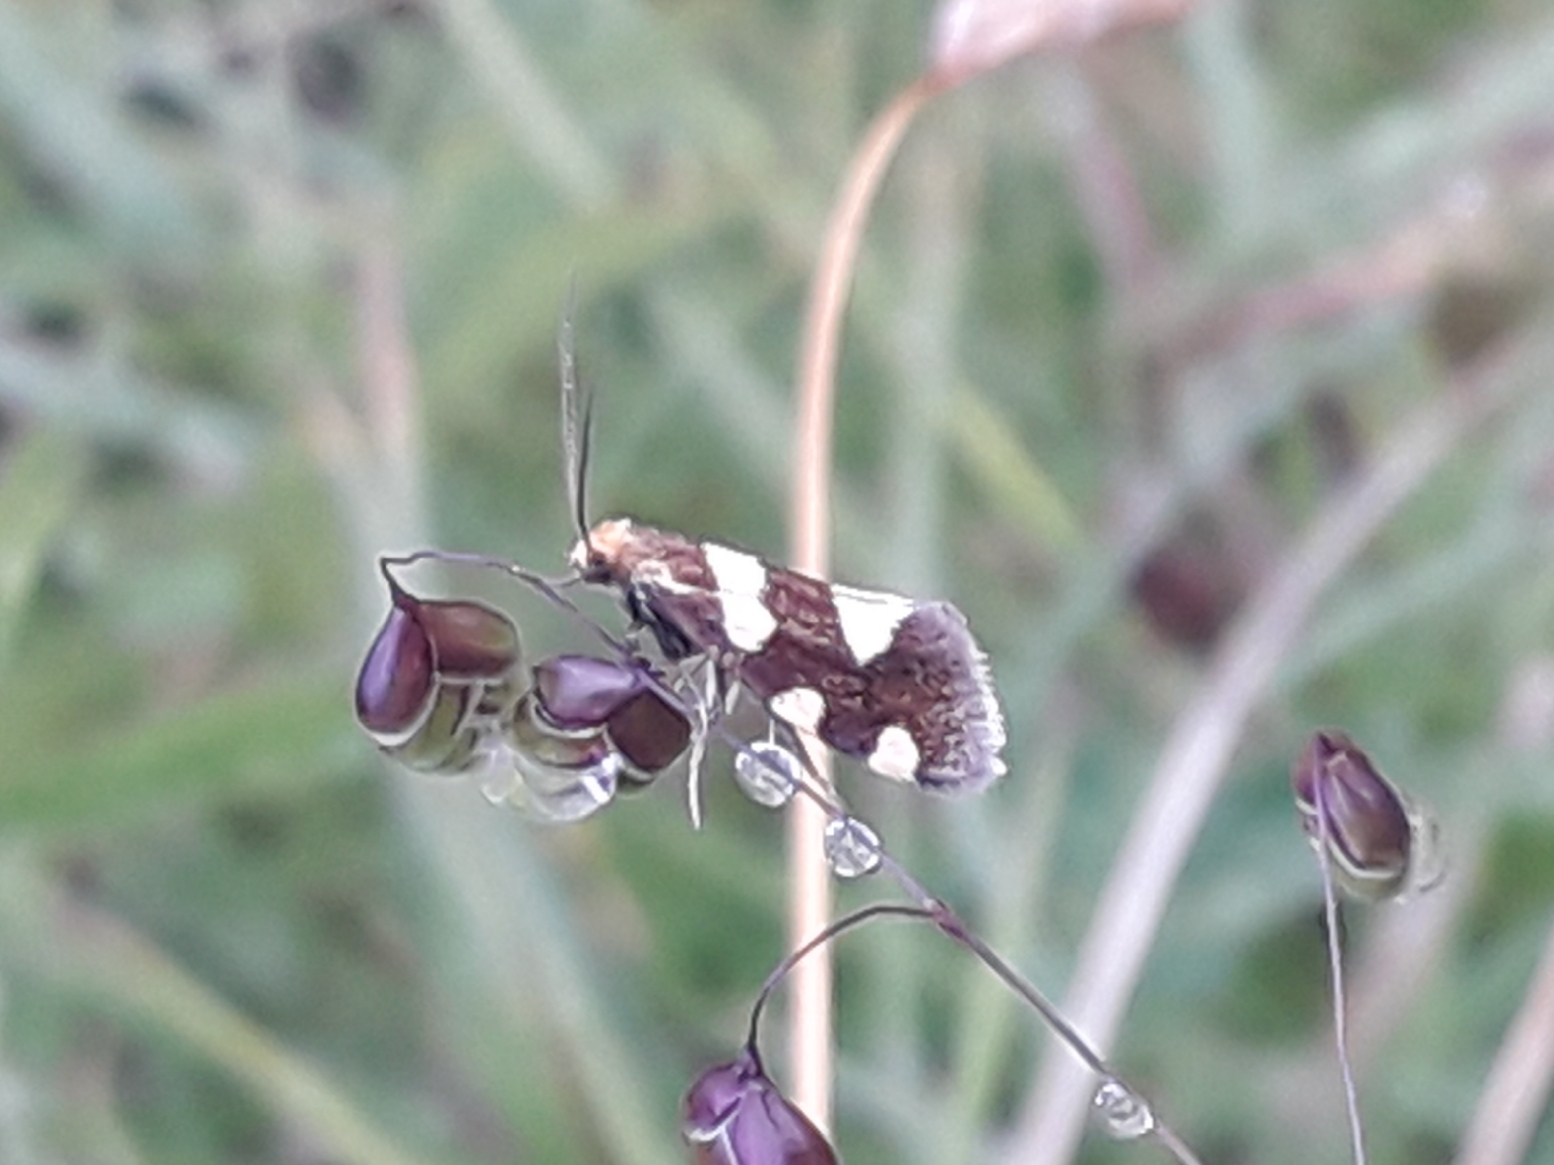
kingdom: Animalia
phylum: Arthropoda
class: Insecta
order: Lepidoptera
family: Incurvariidae
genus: Incurvaria
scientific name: Incurvaria rupella
